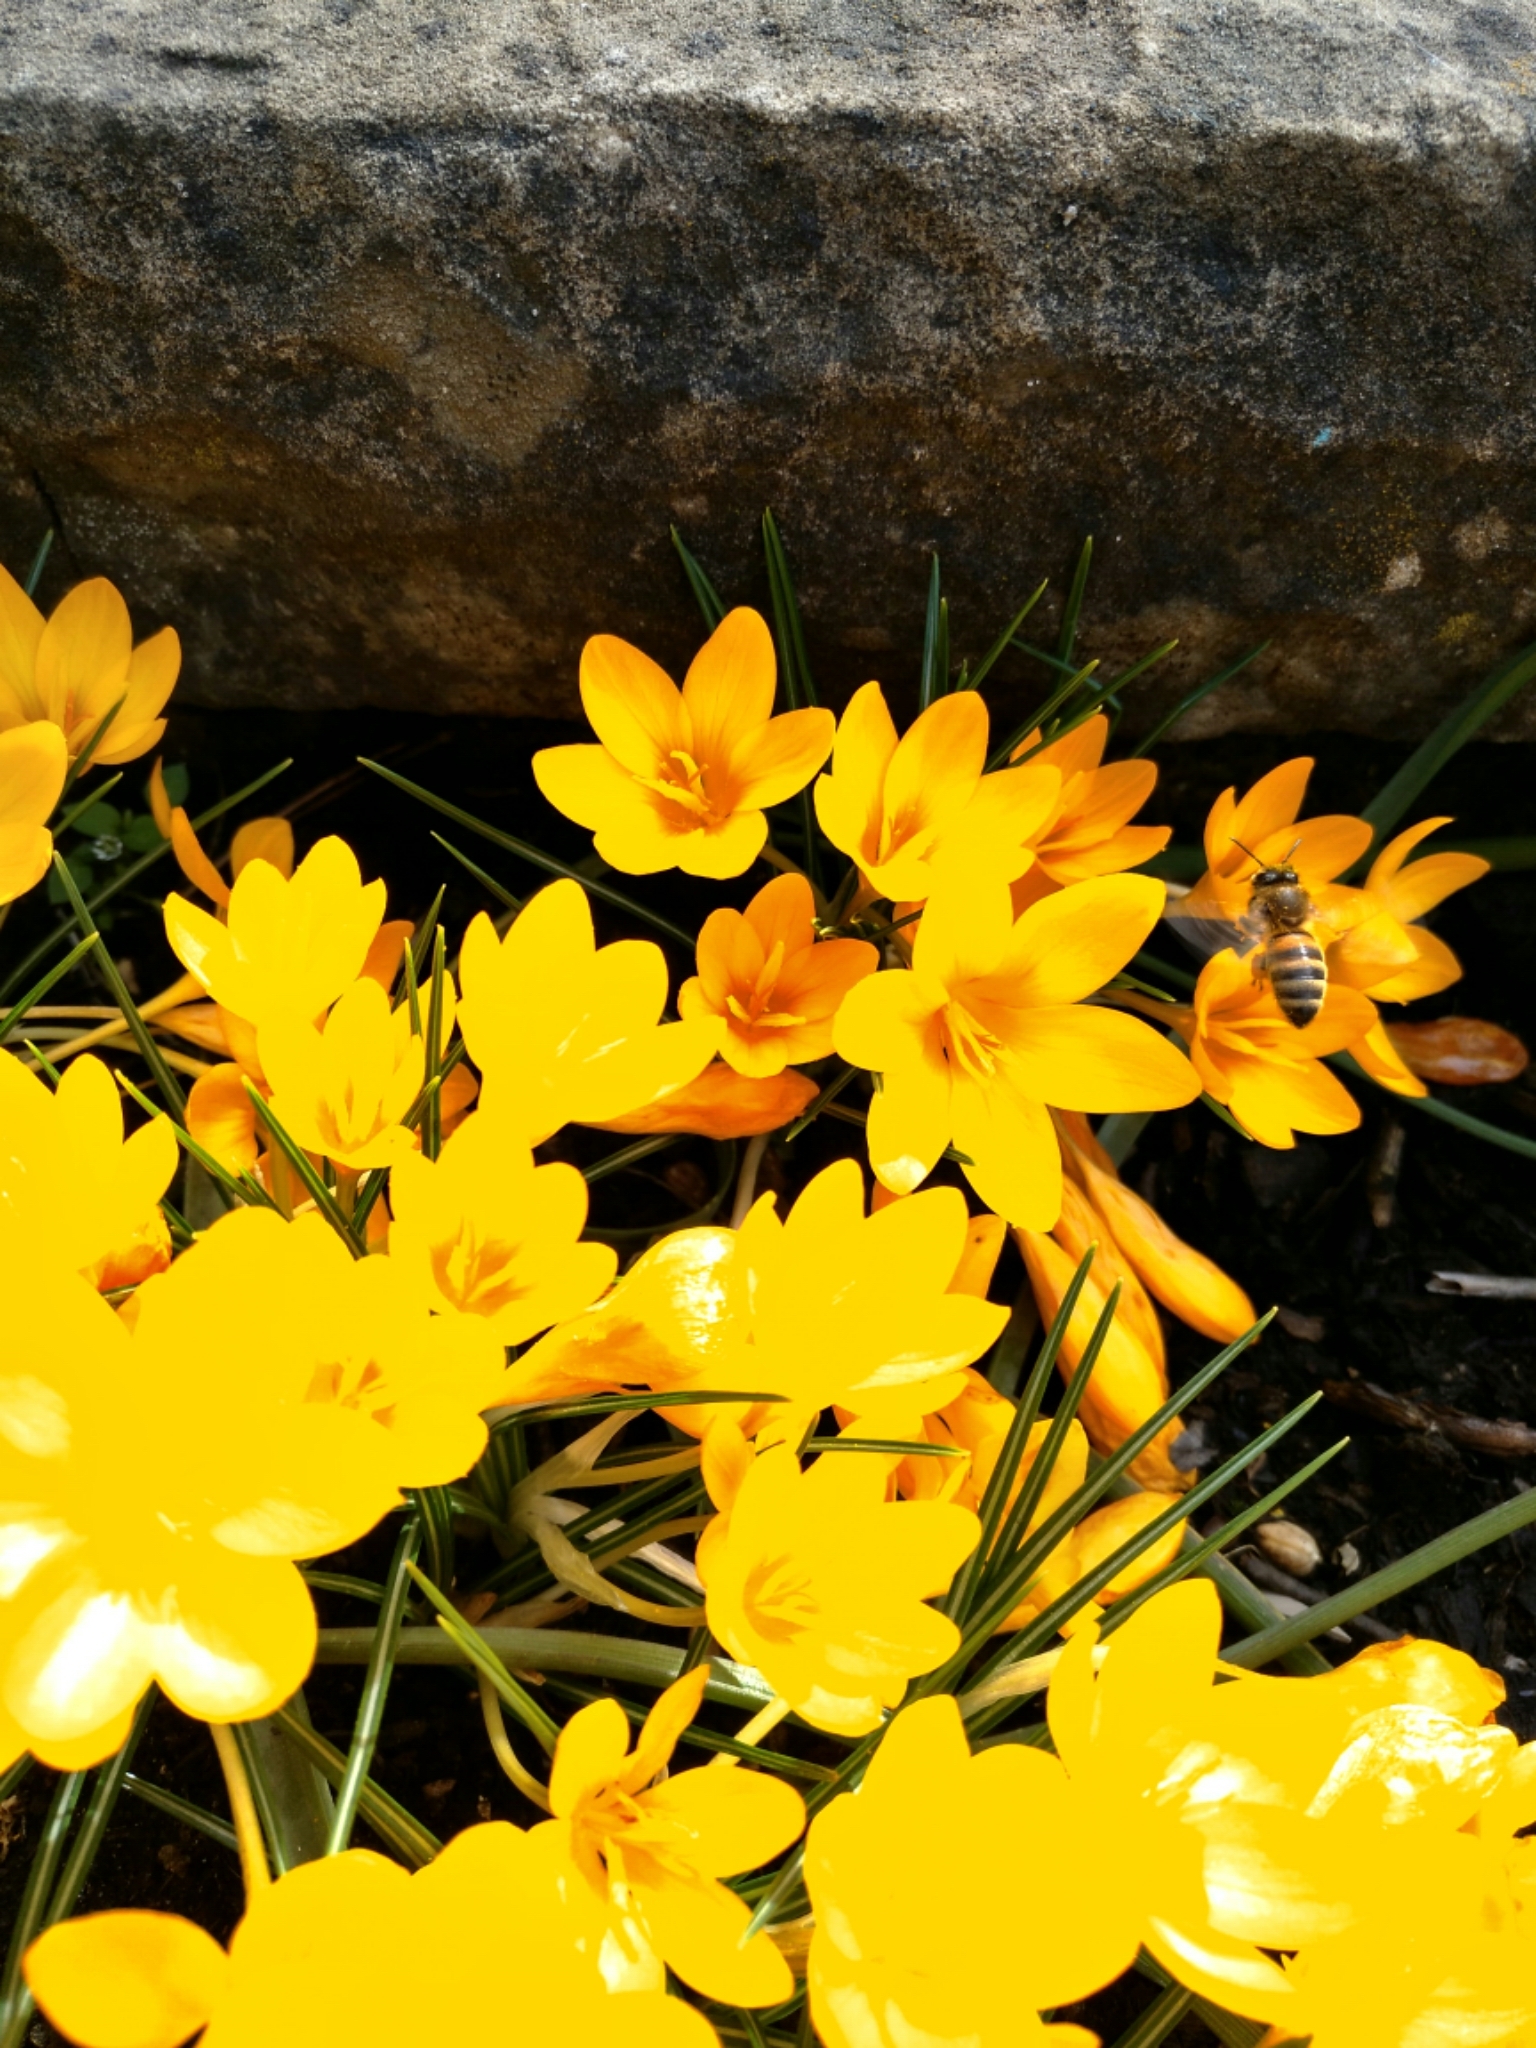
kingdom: Animalia
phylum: Arthropoda
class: Insecta
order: Hymenoptera
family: Apidae
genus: Apis
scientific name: Apis mellifera
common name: Honey bee
